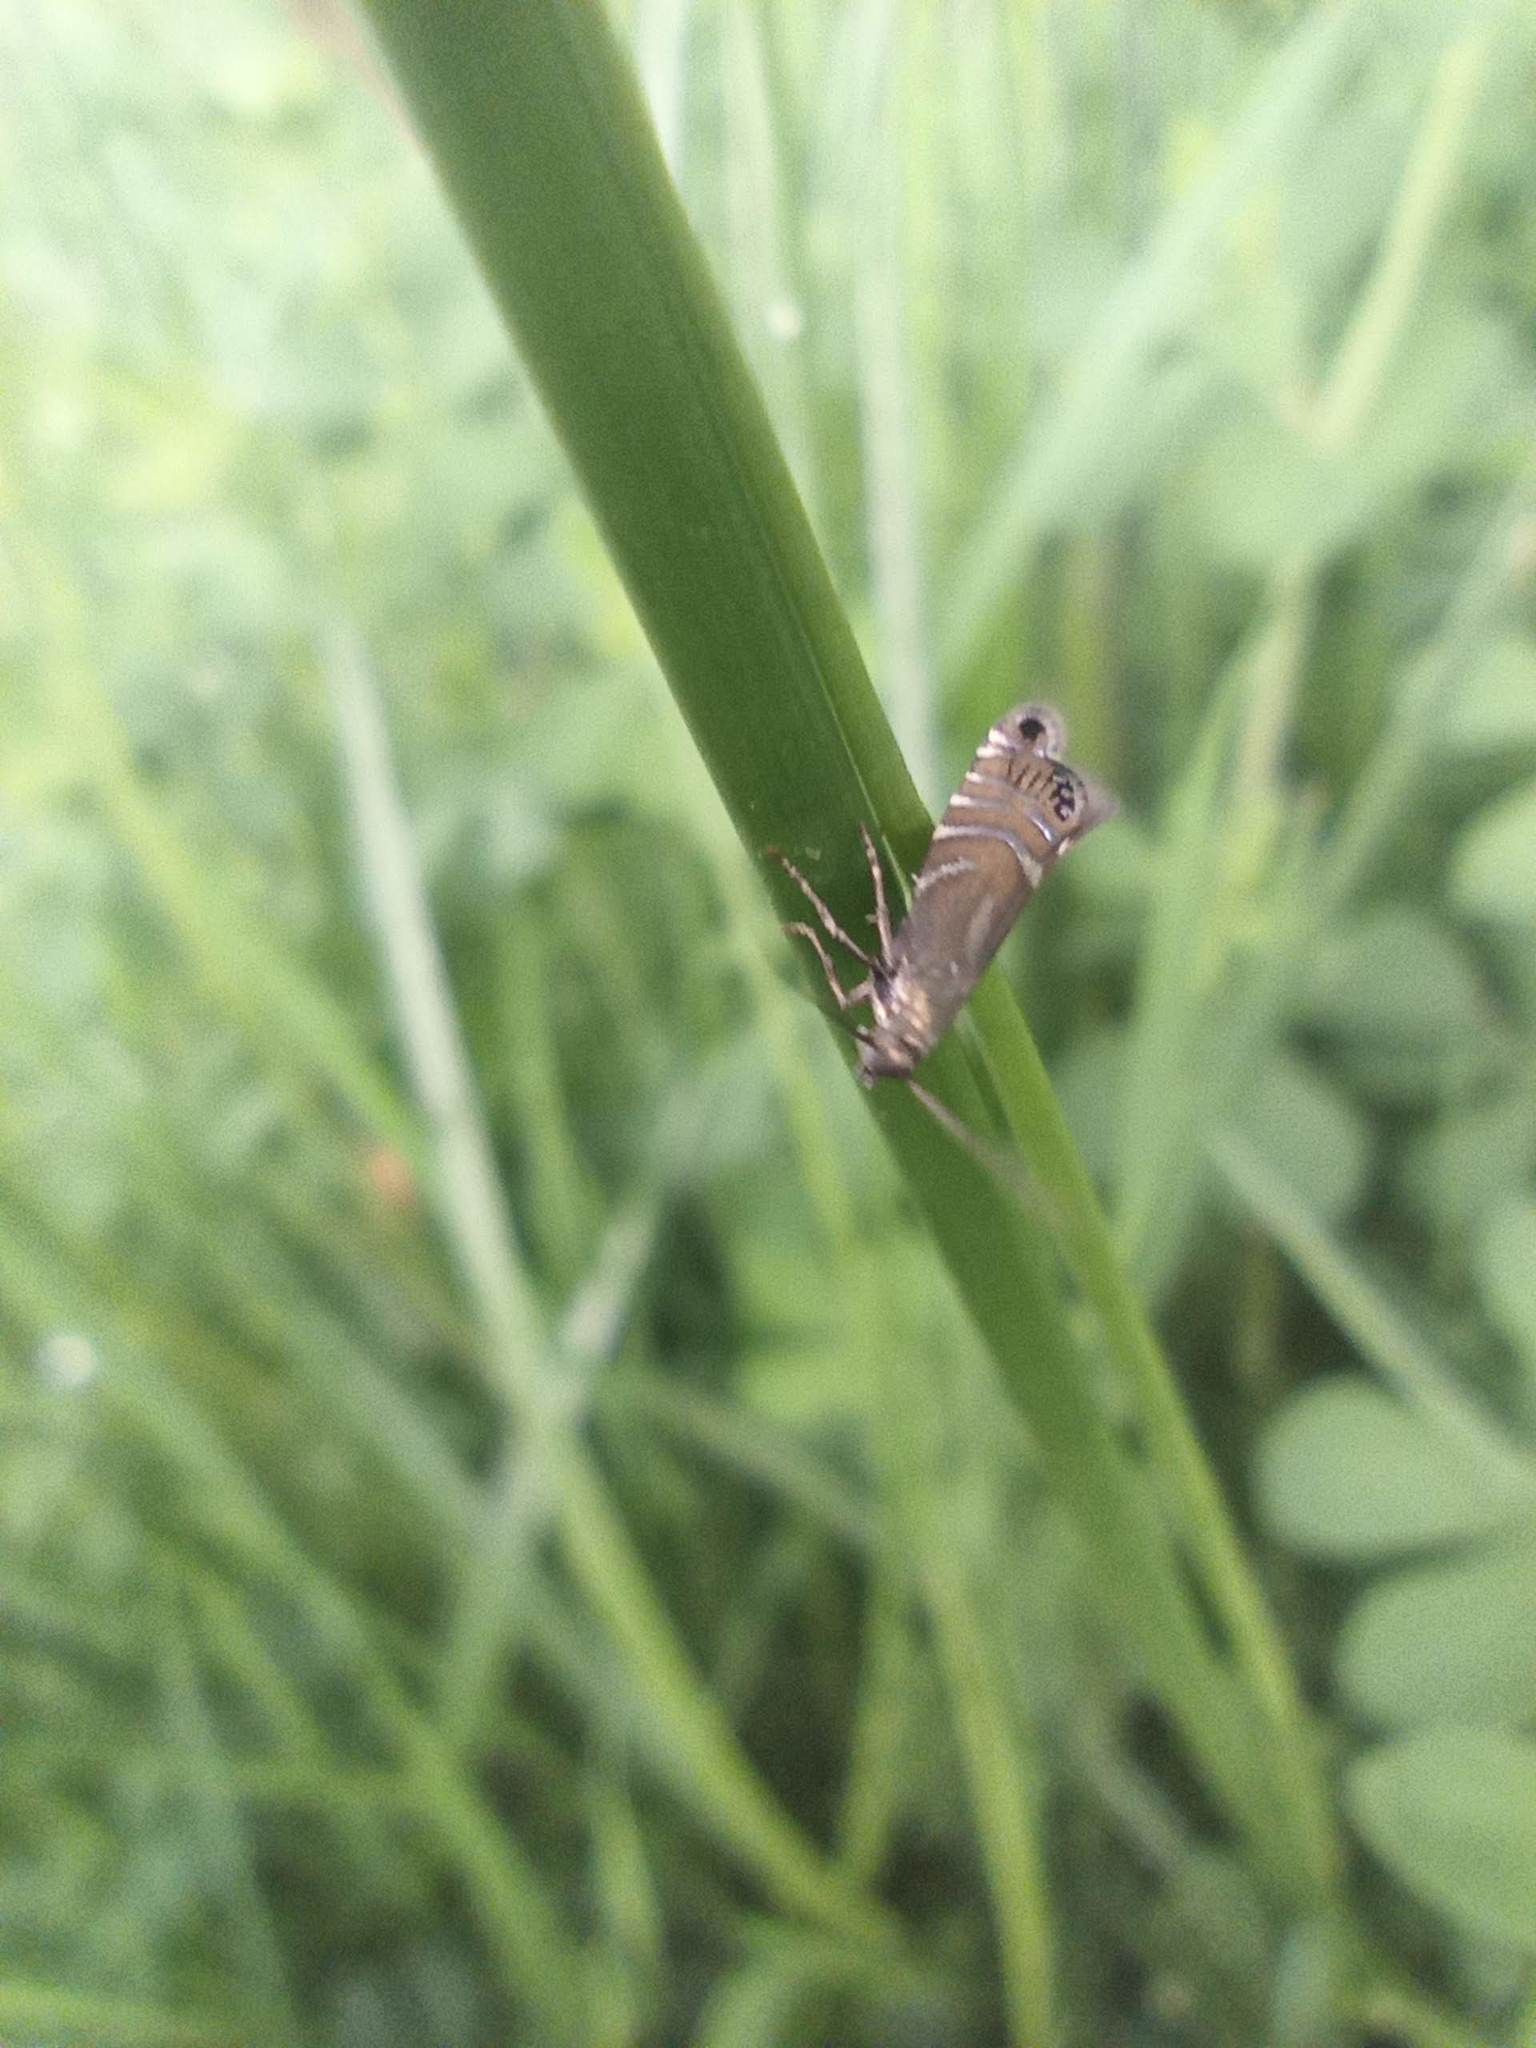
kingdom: Animalia
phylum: Arthropoda
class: Insecta
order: Lepidoptera
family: Glyphipterigidae
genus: Glyphipterix
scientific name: Glyphipterix thrasonella
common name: Speckled fanner
